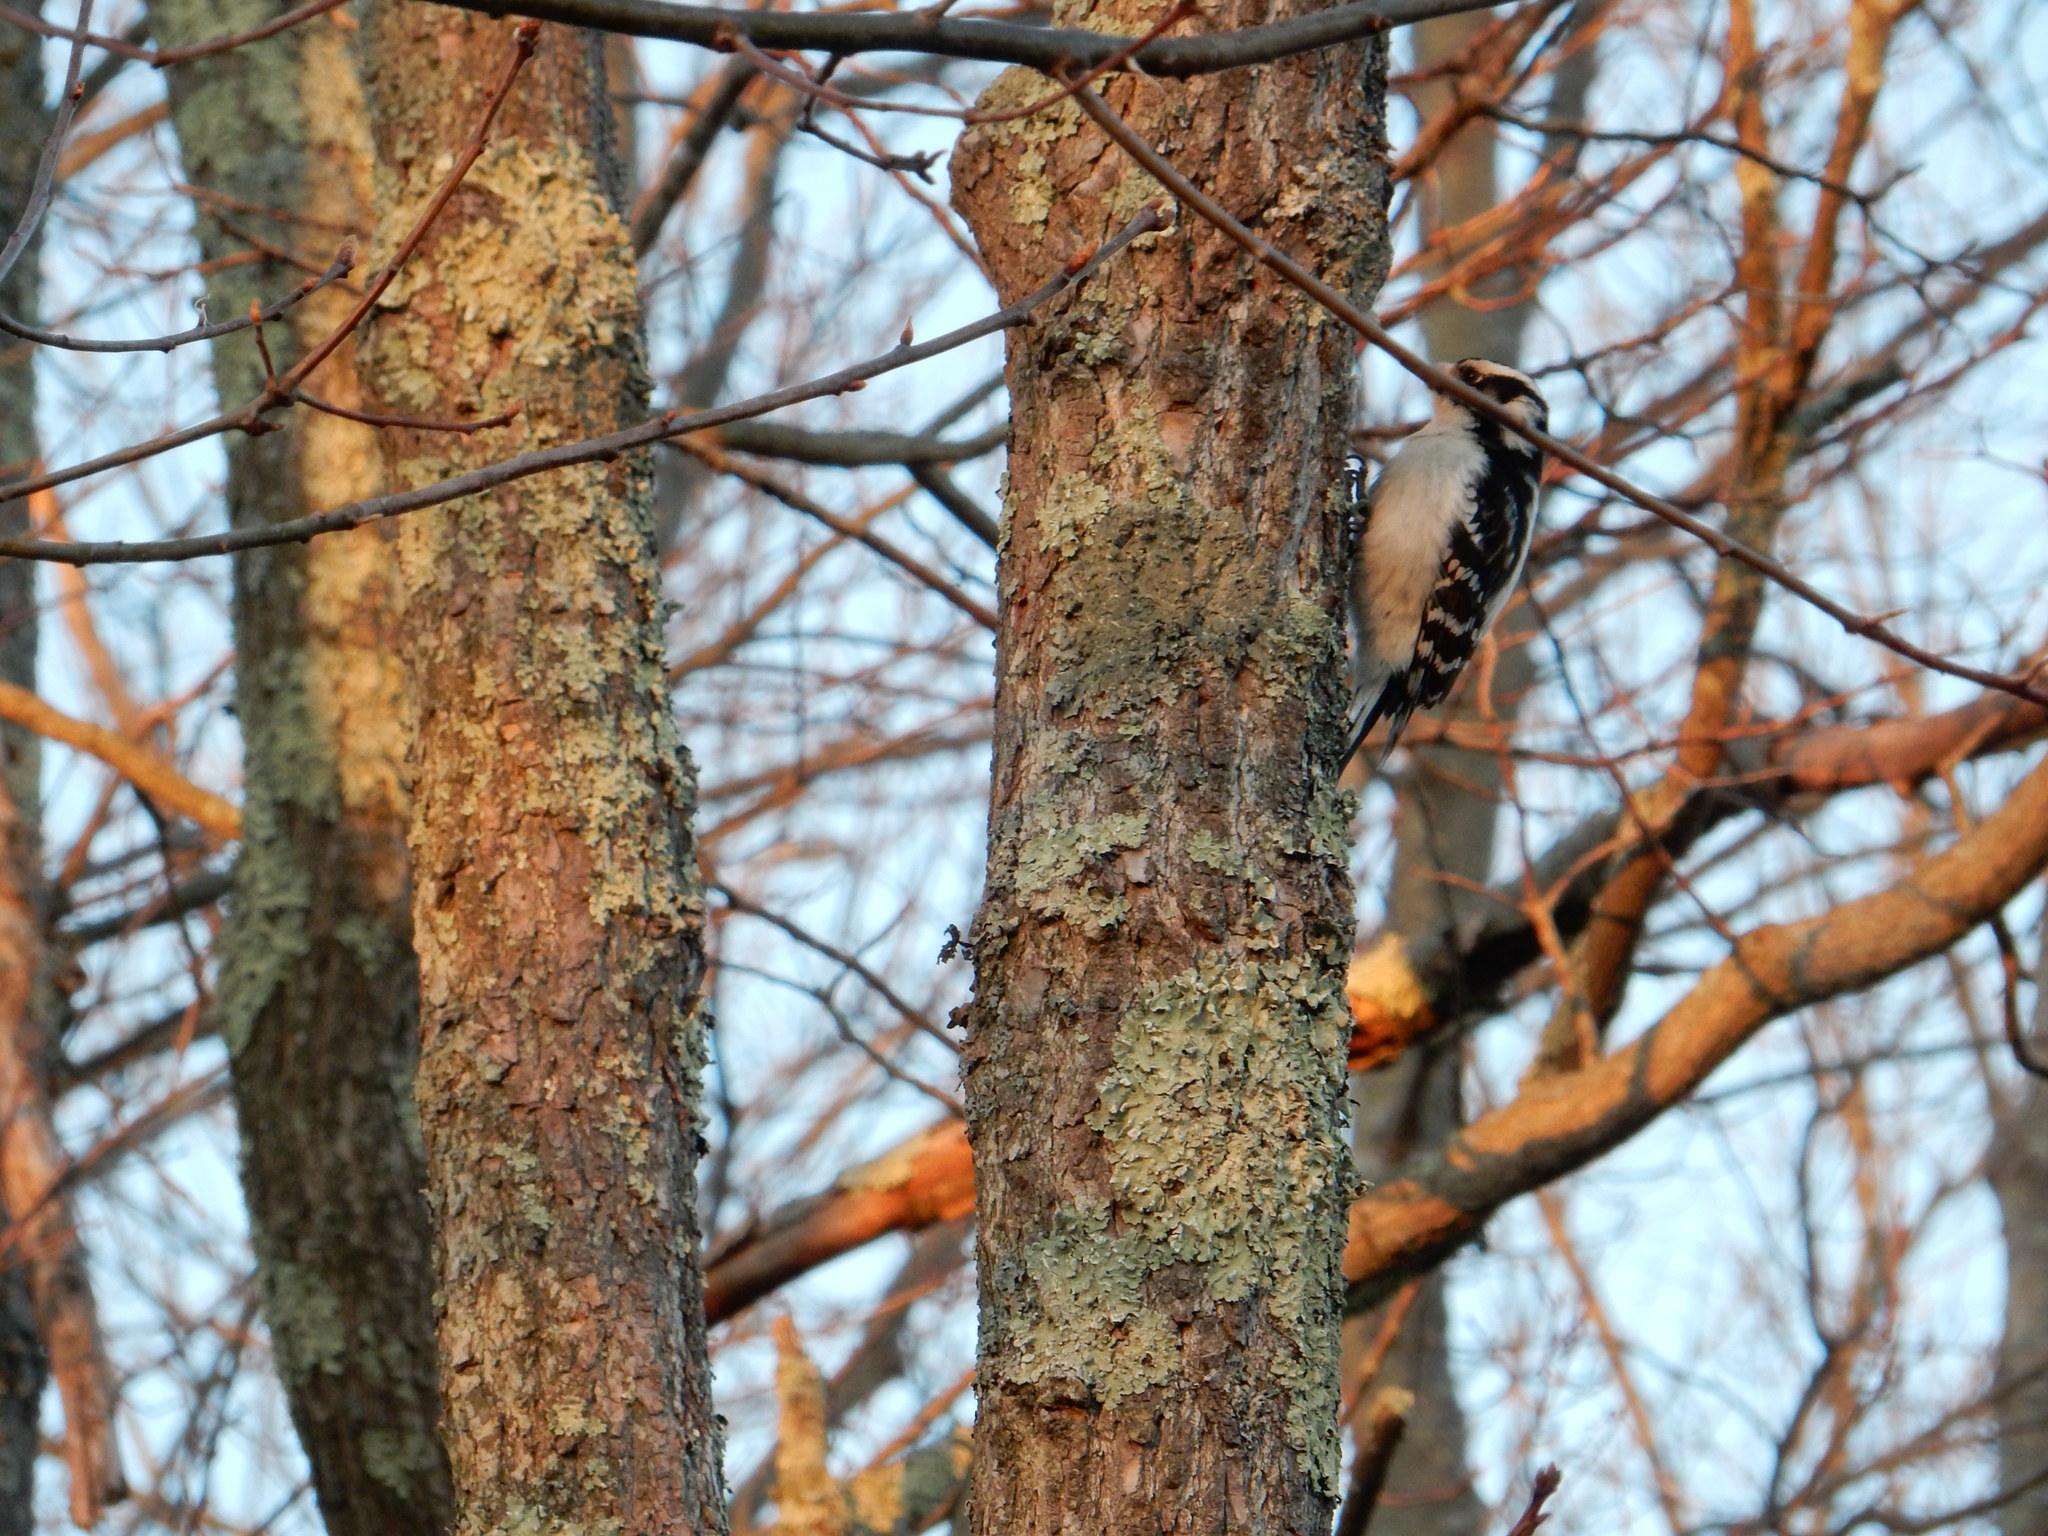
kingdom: Animalia
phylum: Chordata
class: Aves
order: Piciformes
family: Picidae
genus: Dryobates
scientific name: Dryobates pubescens
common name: Downy woodpecker
